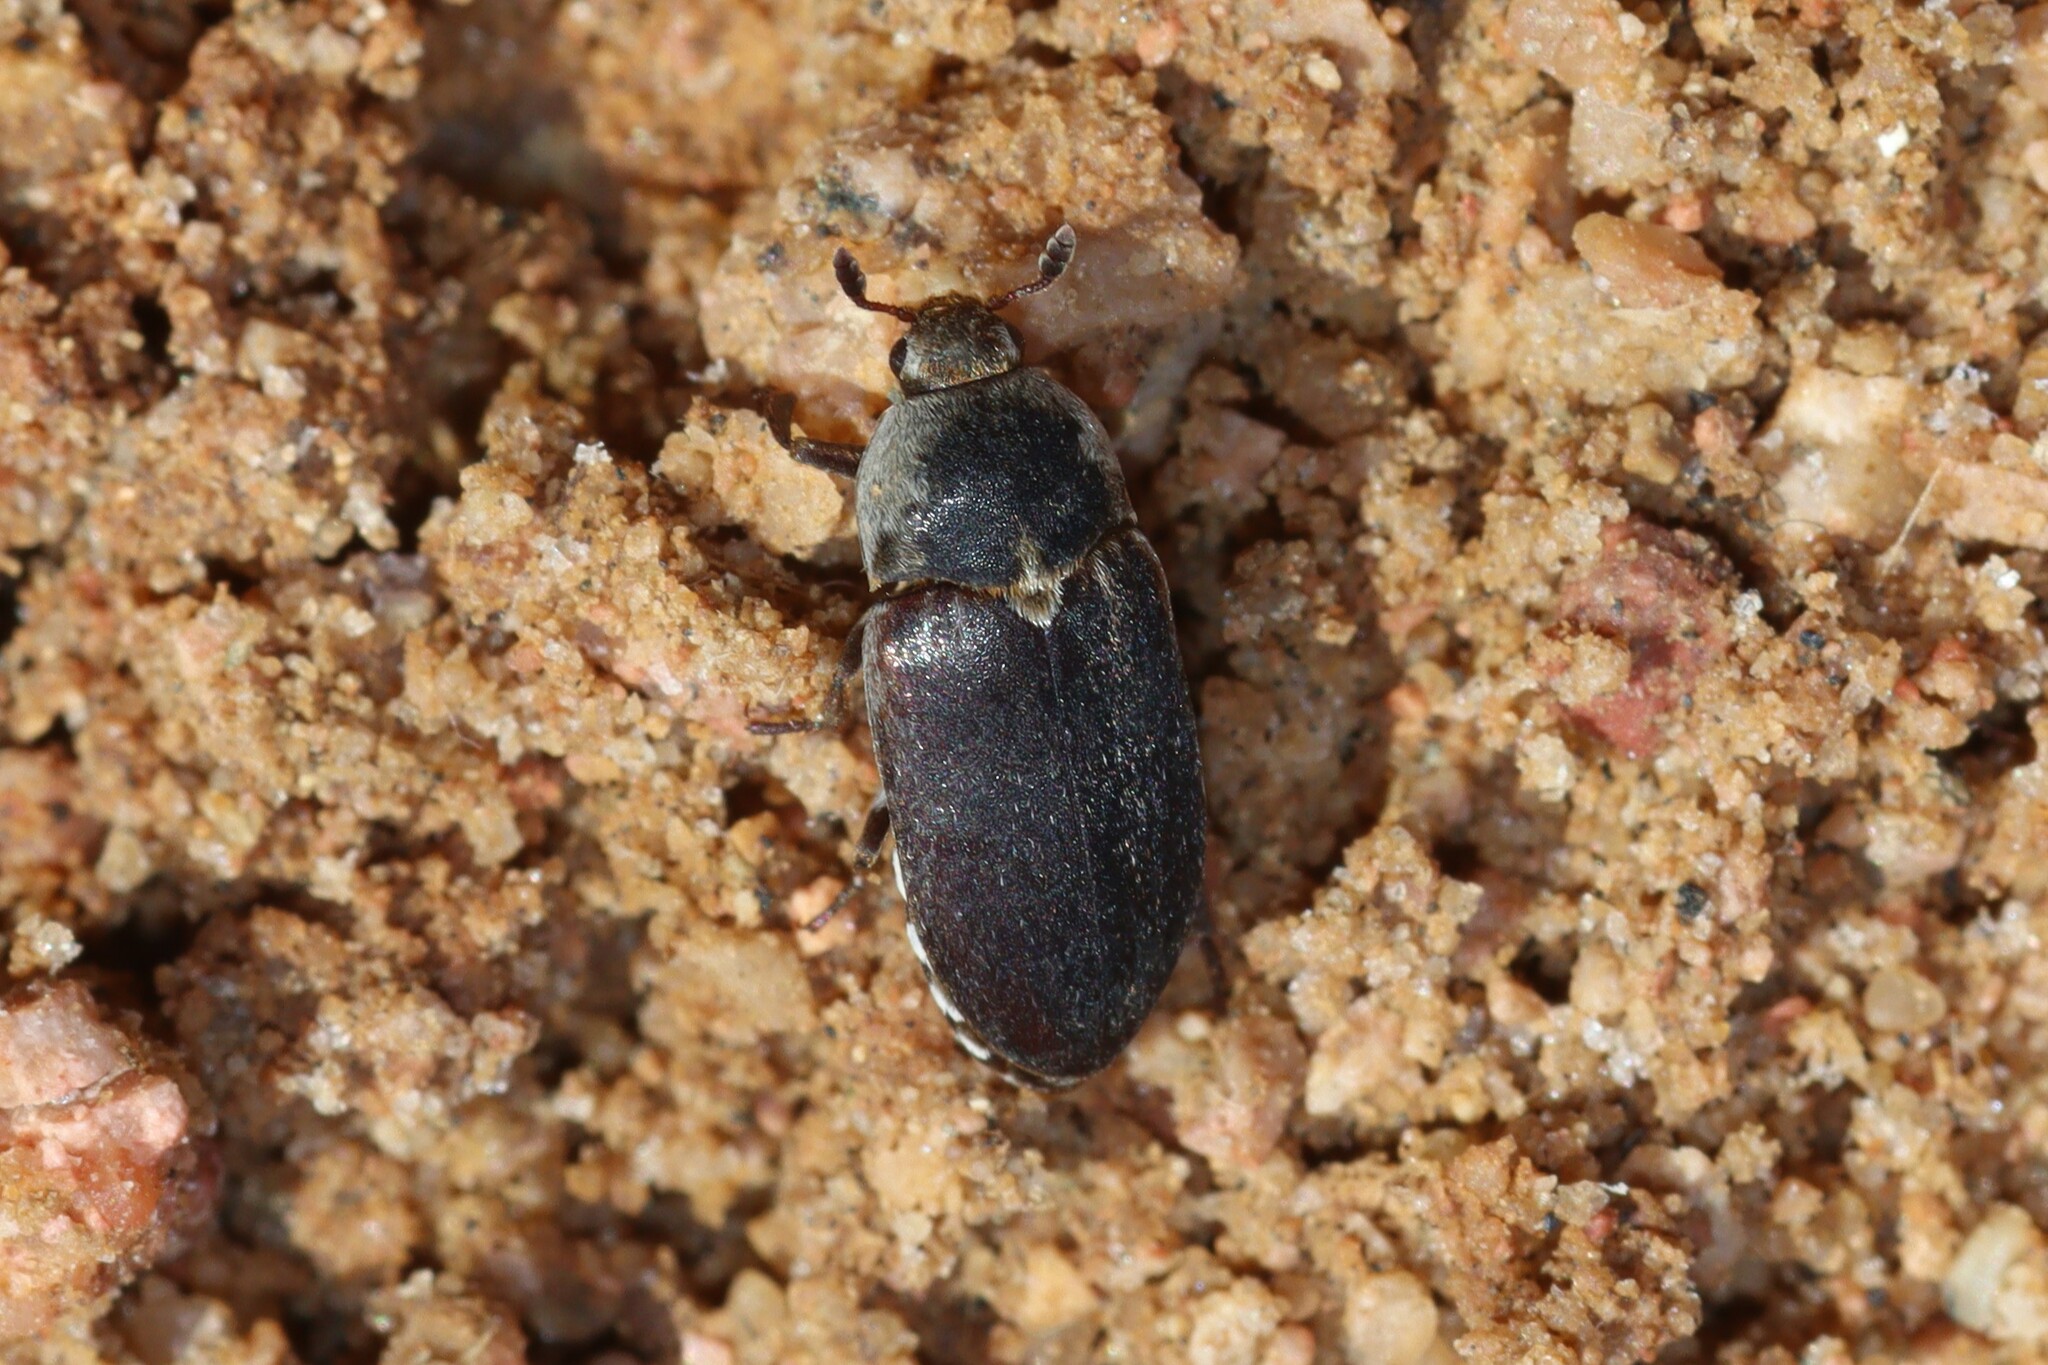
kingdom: Animalia
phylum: Arthropoda
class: Insecta
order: Coleoptera
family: Dermestidae
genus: Dermestes
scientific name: Dermestes frischi
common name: Frisch's carpet beetle
